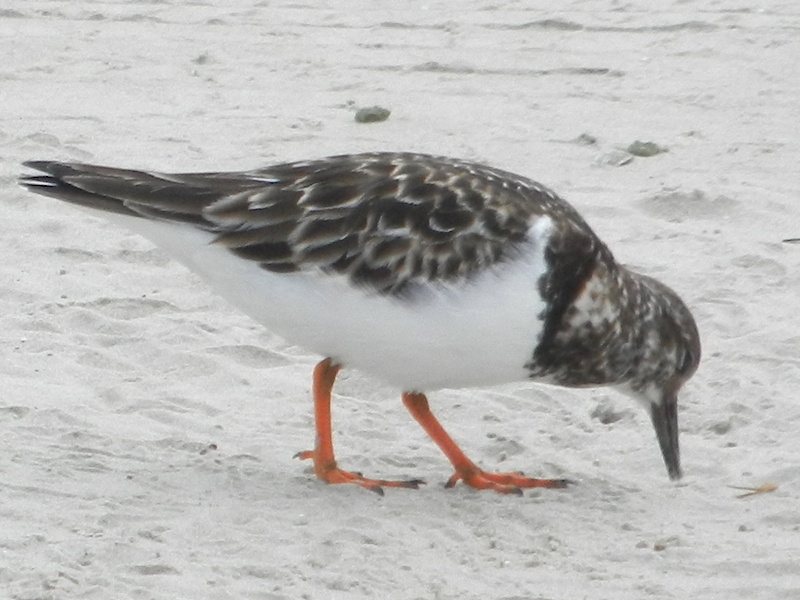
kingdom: Animalia
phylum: Chordata
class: Aves
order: Charadriiformes
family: Scolopacidae
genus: Arenaria
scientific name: Arenaria interpres
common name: Ruddy turnstone
